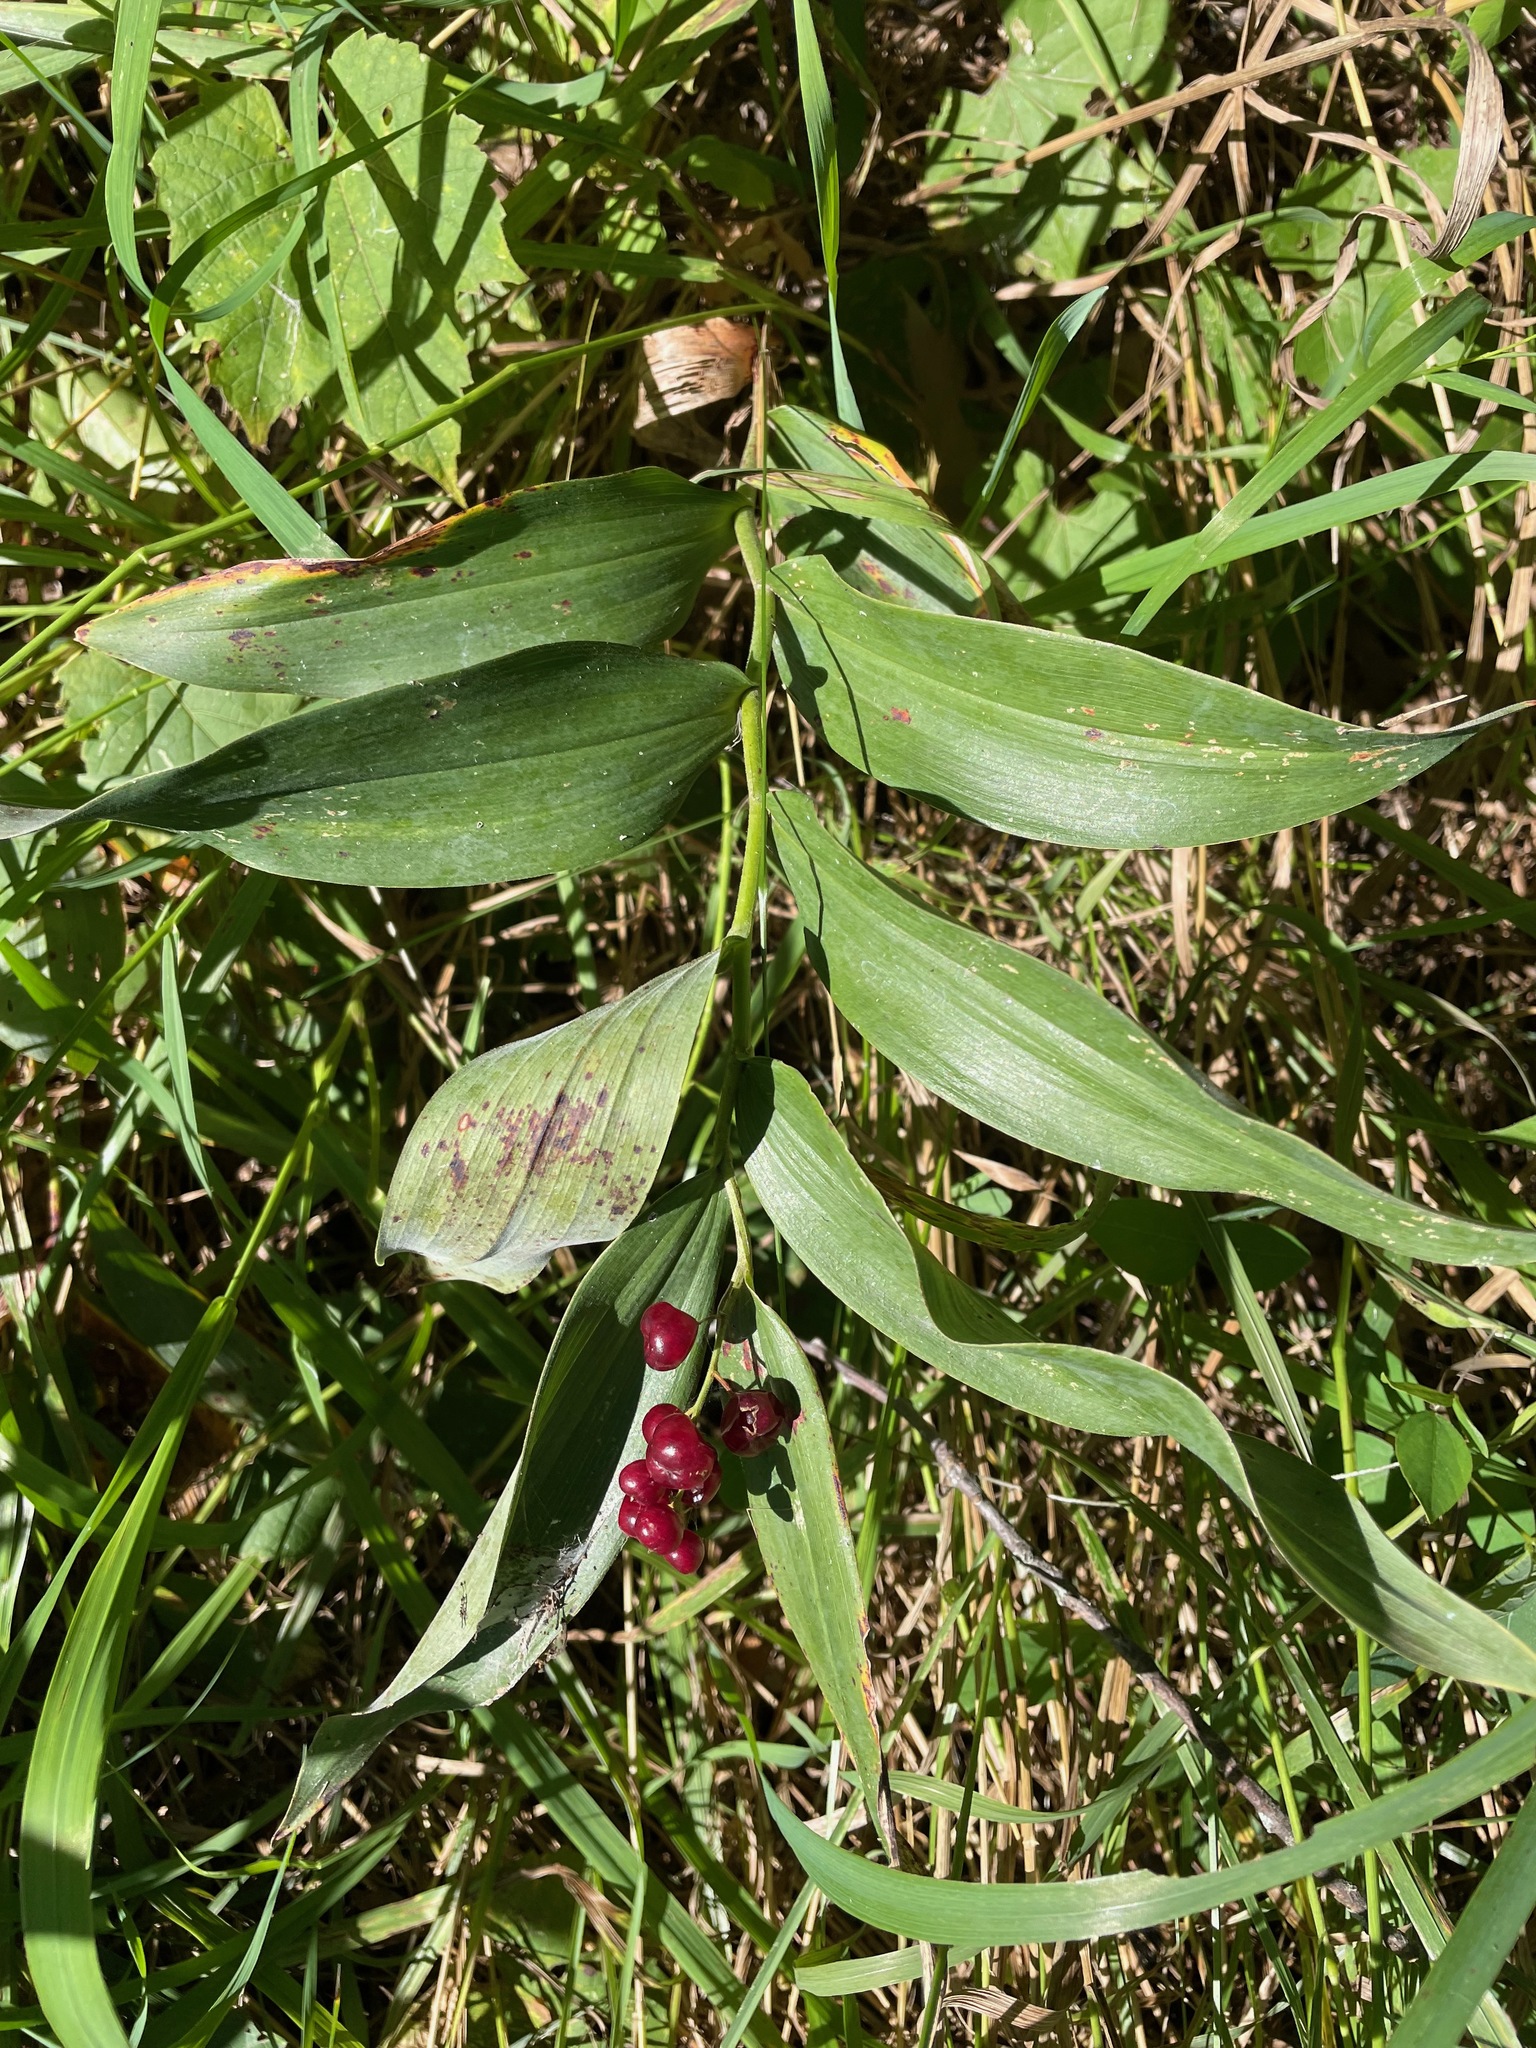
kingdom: Plantae
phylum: Tracheophyta
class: Liliopsida
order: Asparagales
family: Asparagaceae
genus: Maianthemum
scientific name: Maianthemum stellatum
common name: Little false solomon's seal
